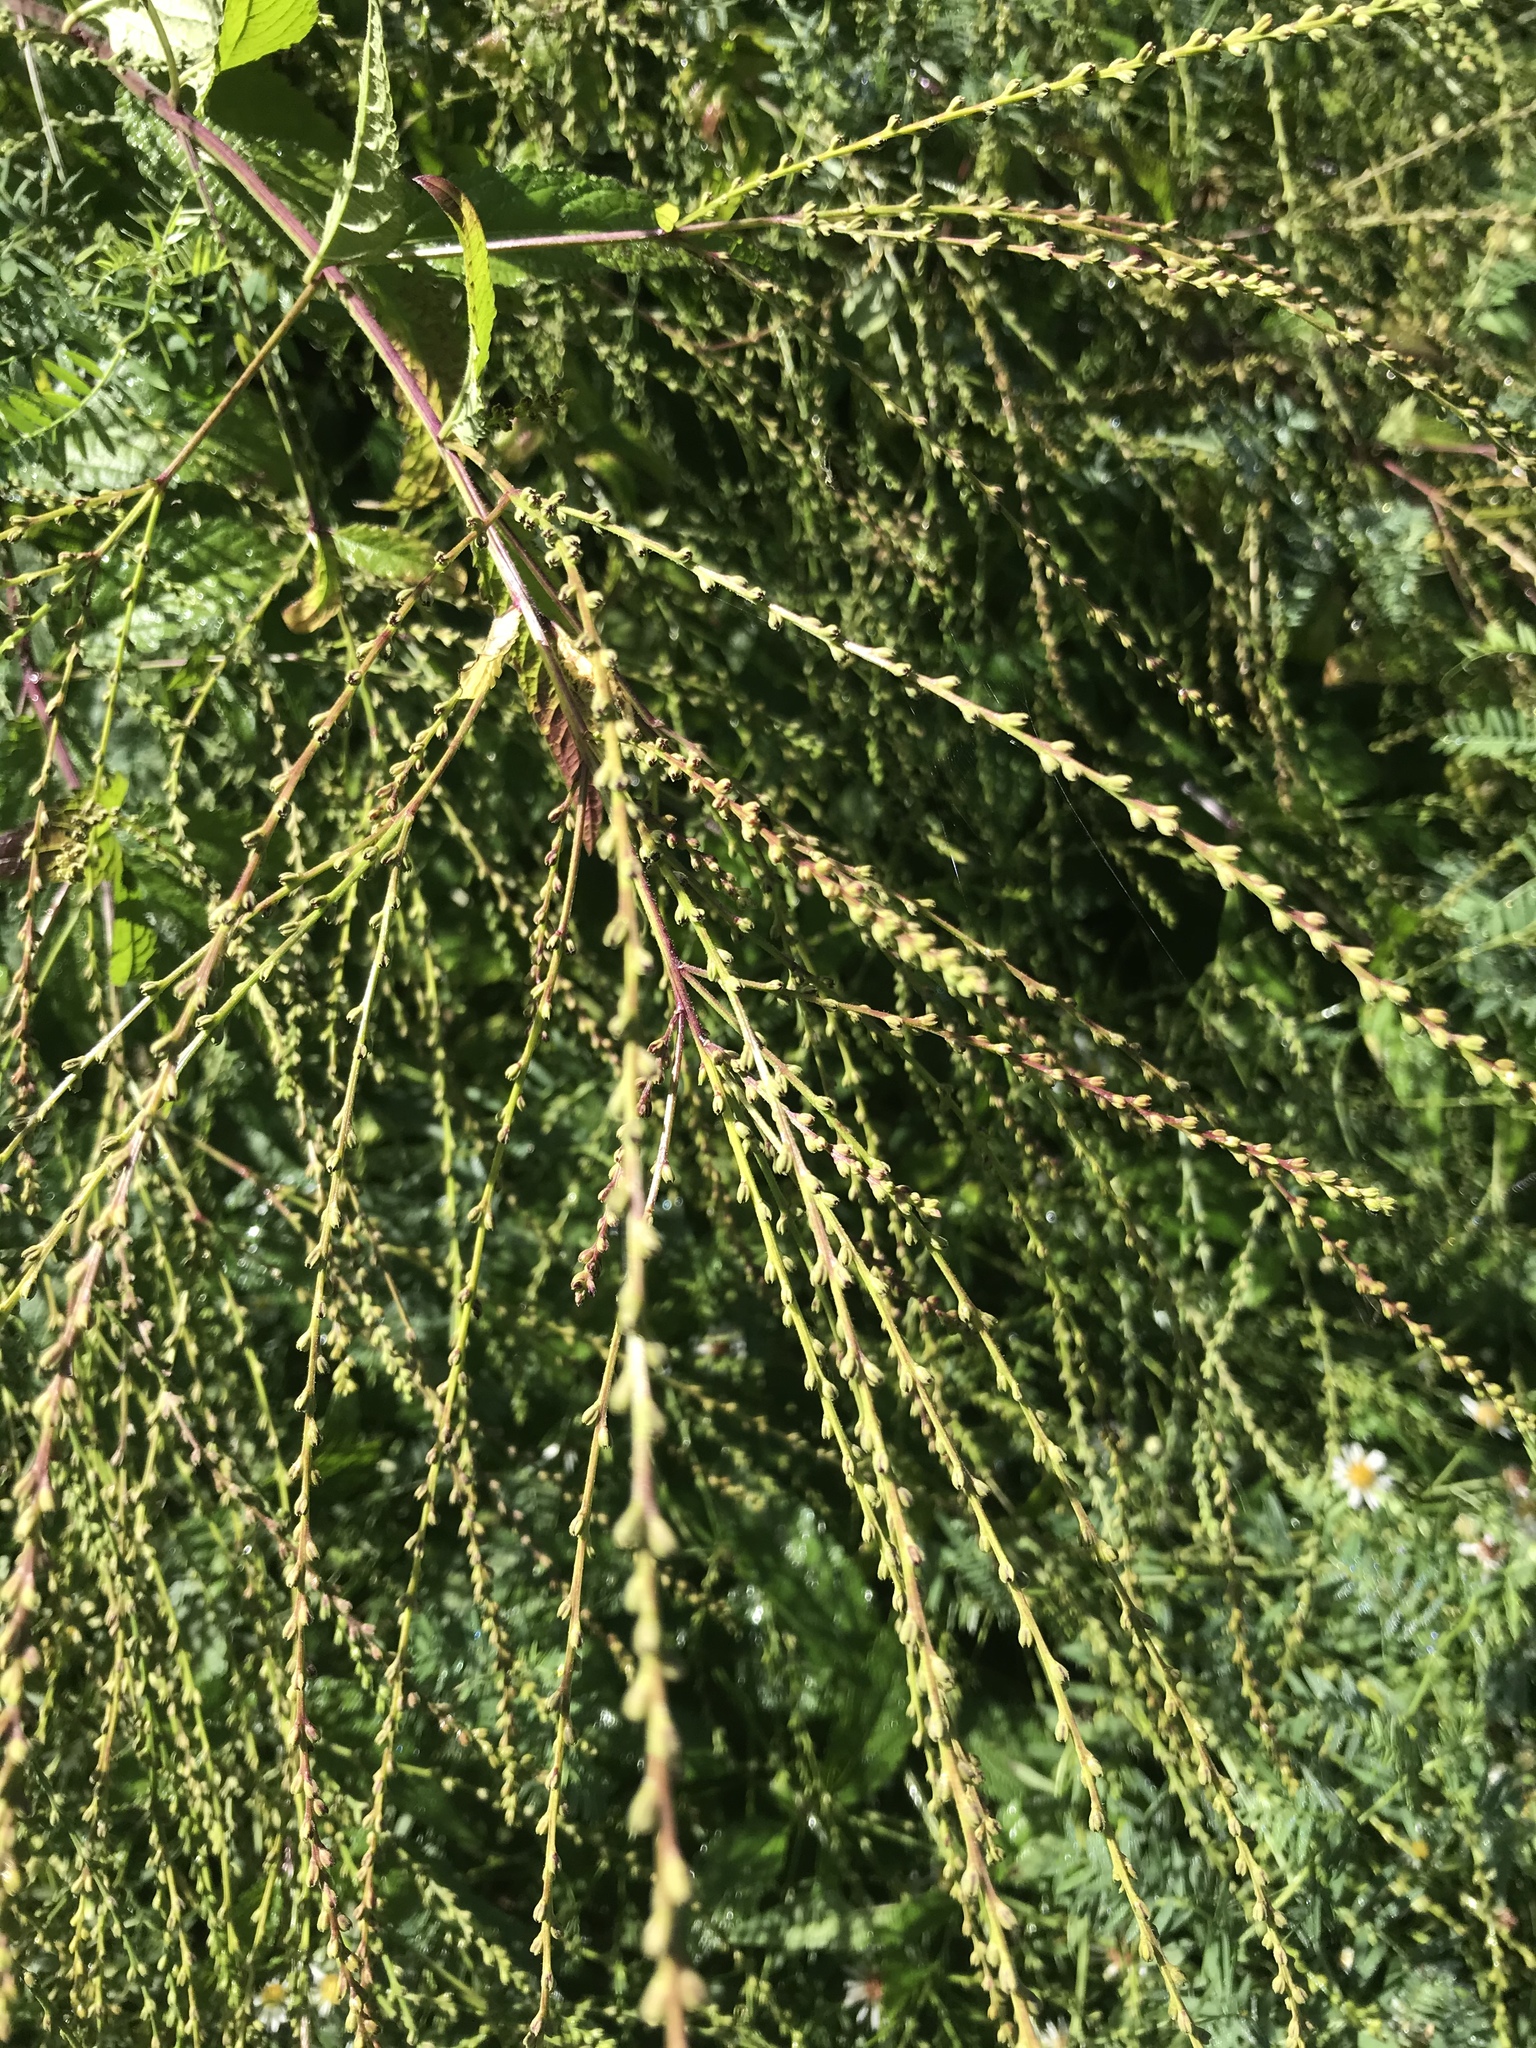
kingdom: Plantae
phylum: Tracheophyta
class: Magnoliopsida
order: Lamiales
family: Verbenaceae
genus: Verbena
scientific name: Verbena urticifolia
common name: Nettle-leaved vervain
